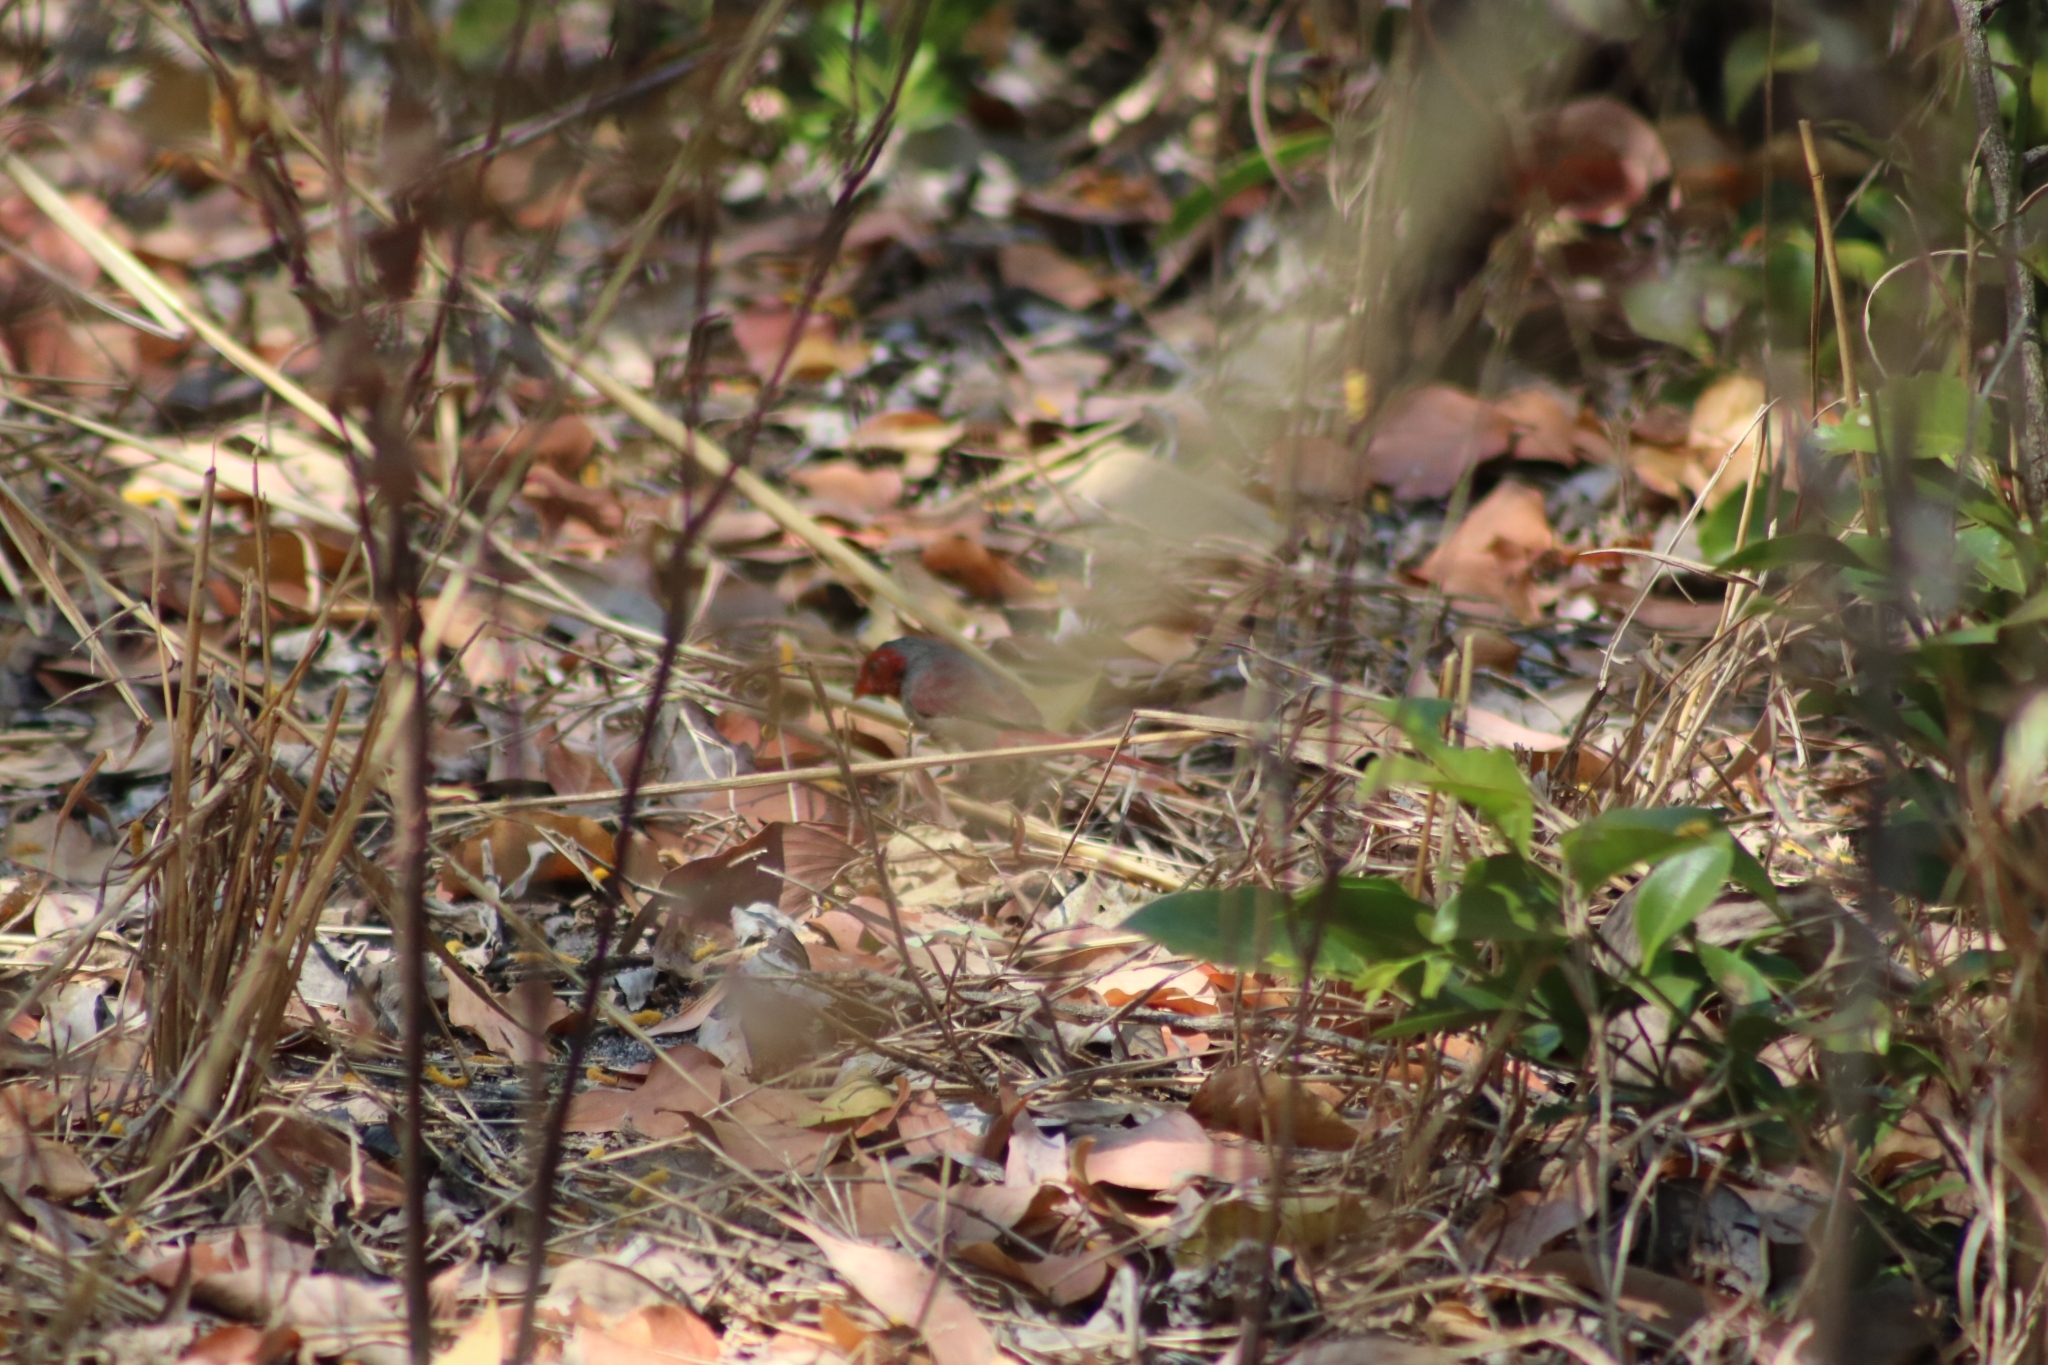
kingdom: Animalia
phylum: Chordata
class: Aves
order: Passeriformes
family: Estrildidae
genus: Neochmia
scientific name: Neochmia phaeton
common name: Crimson finch
